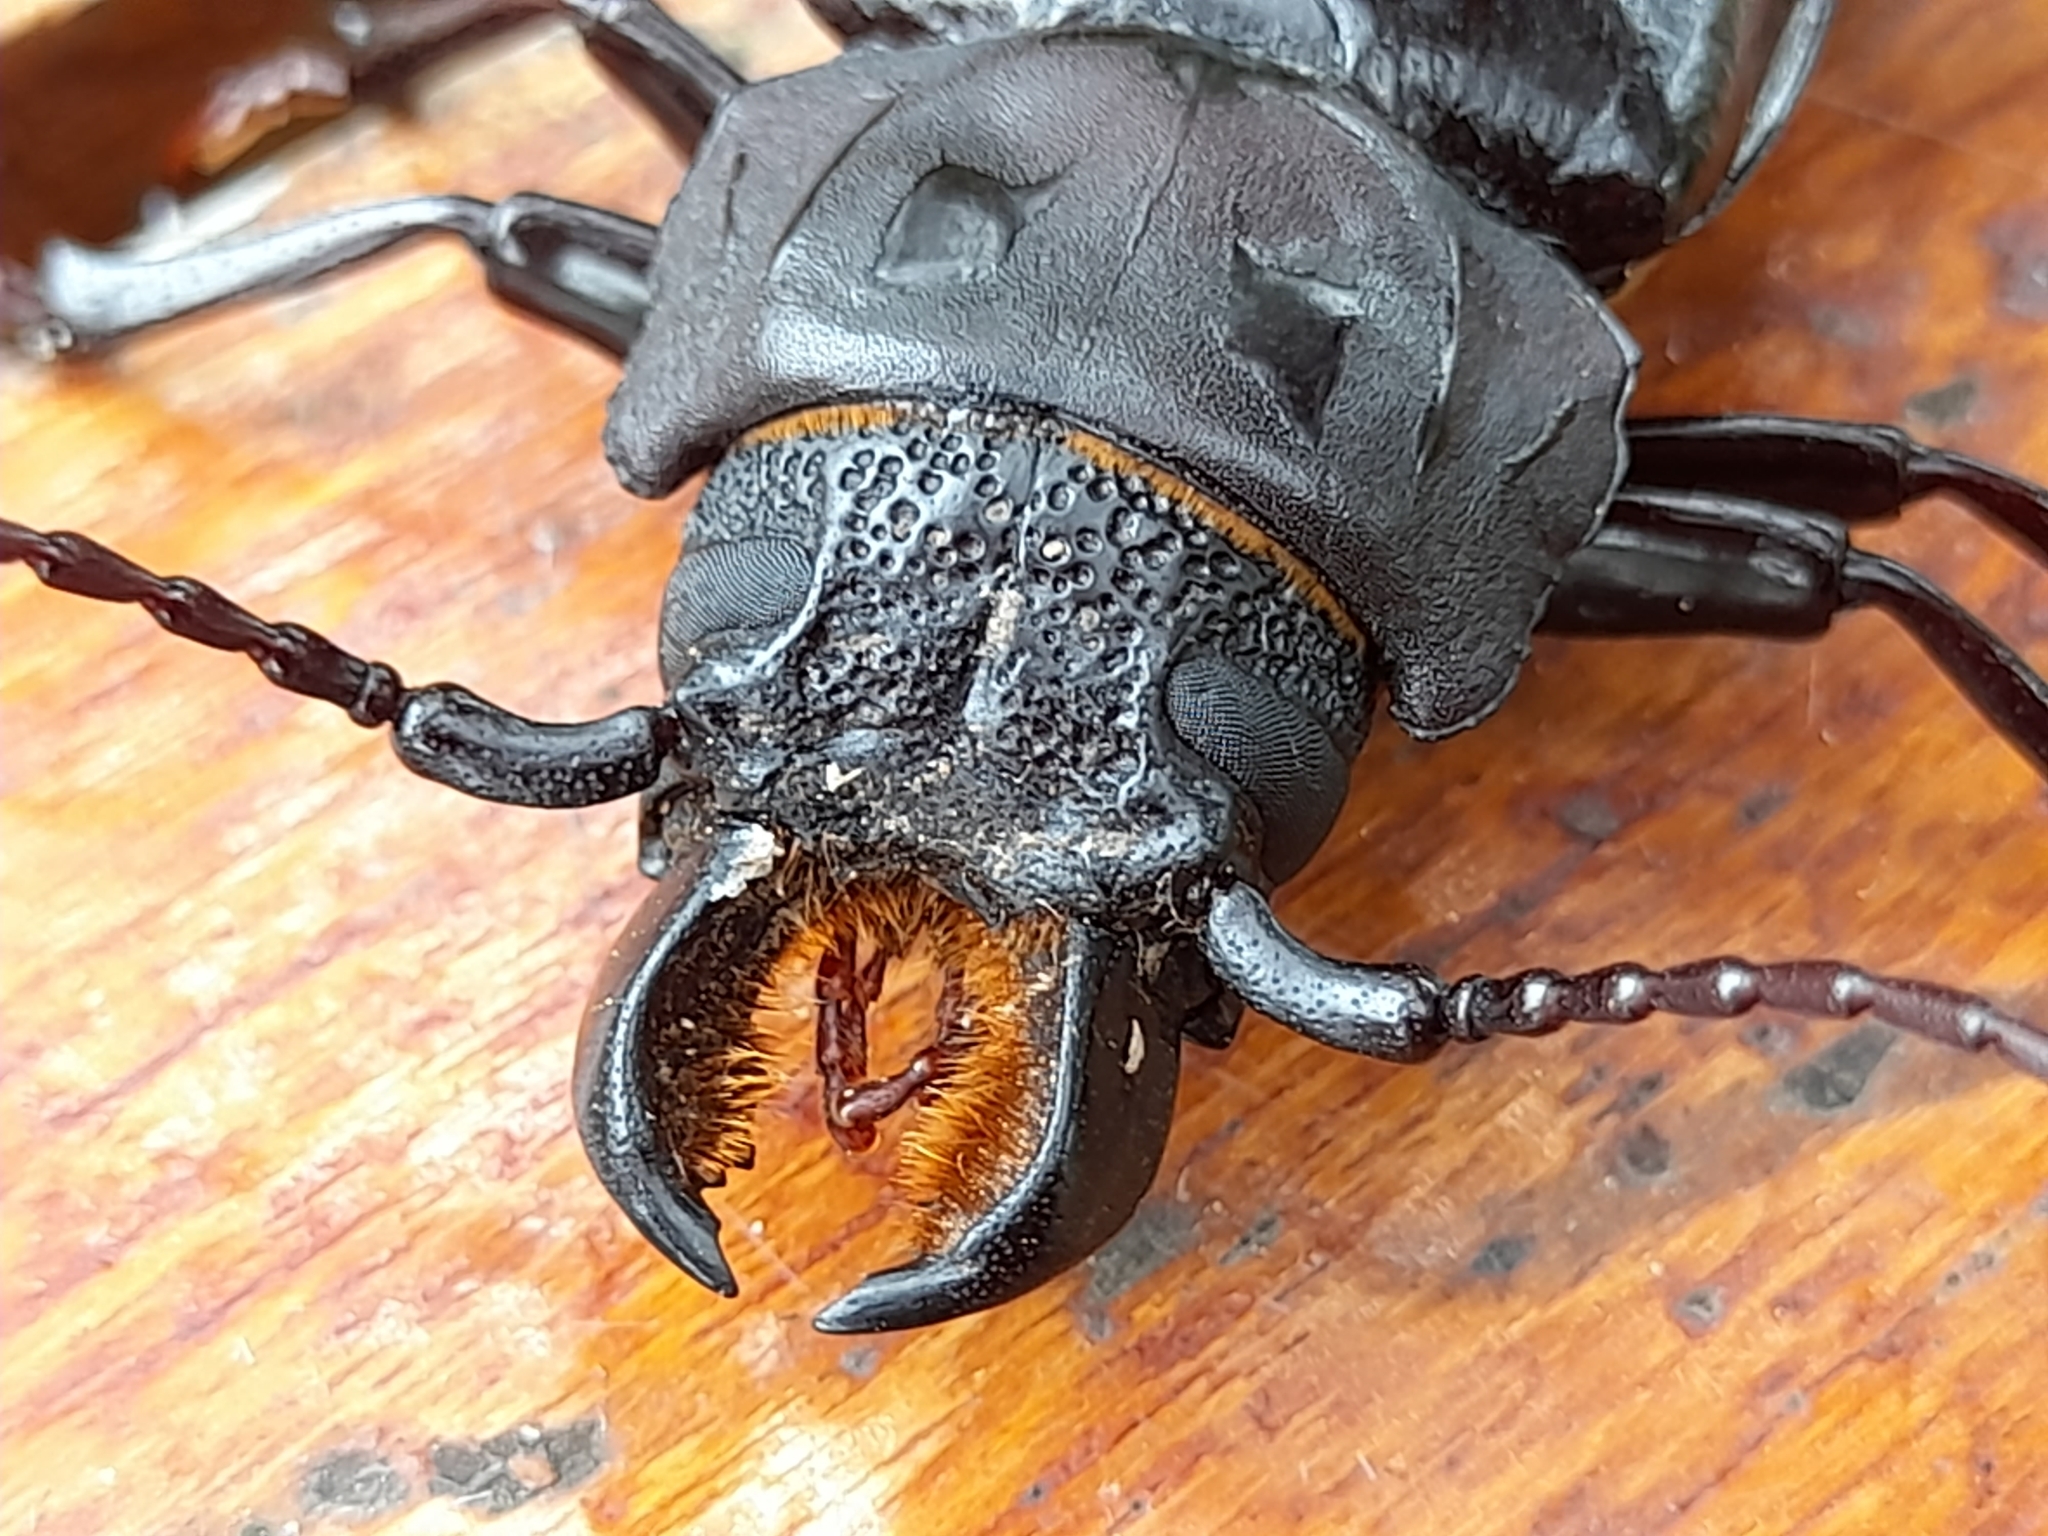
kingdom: Animalia
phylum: Arthropoda
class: Insecta
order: Coleoptera
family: Cerambycidae
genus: Mallodon
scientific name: Mallodon dasystomum
